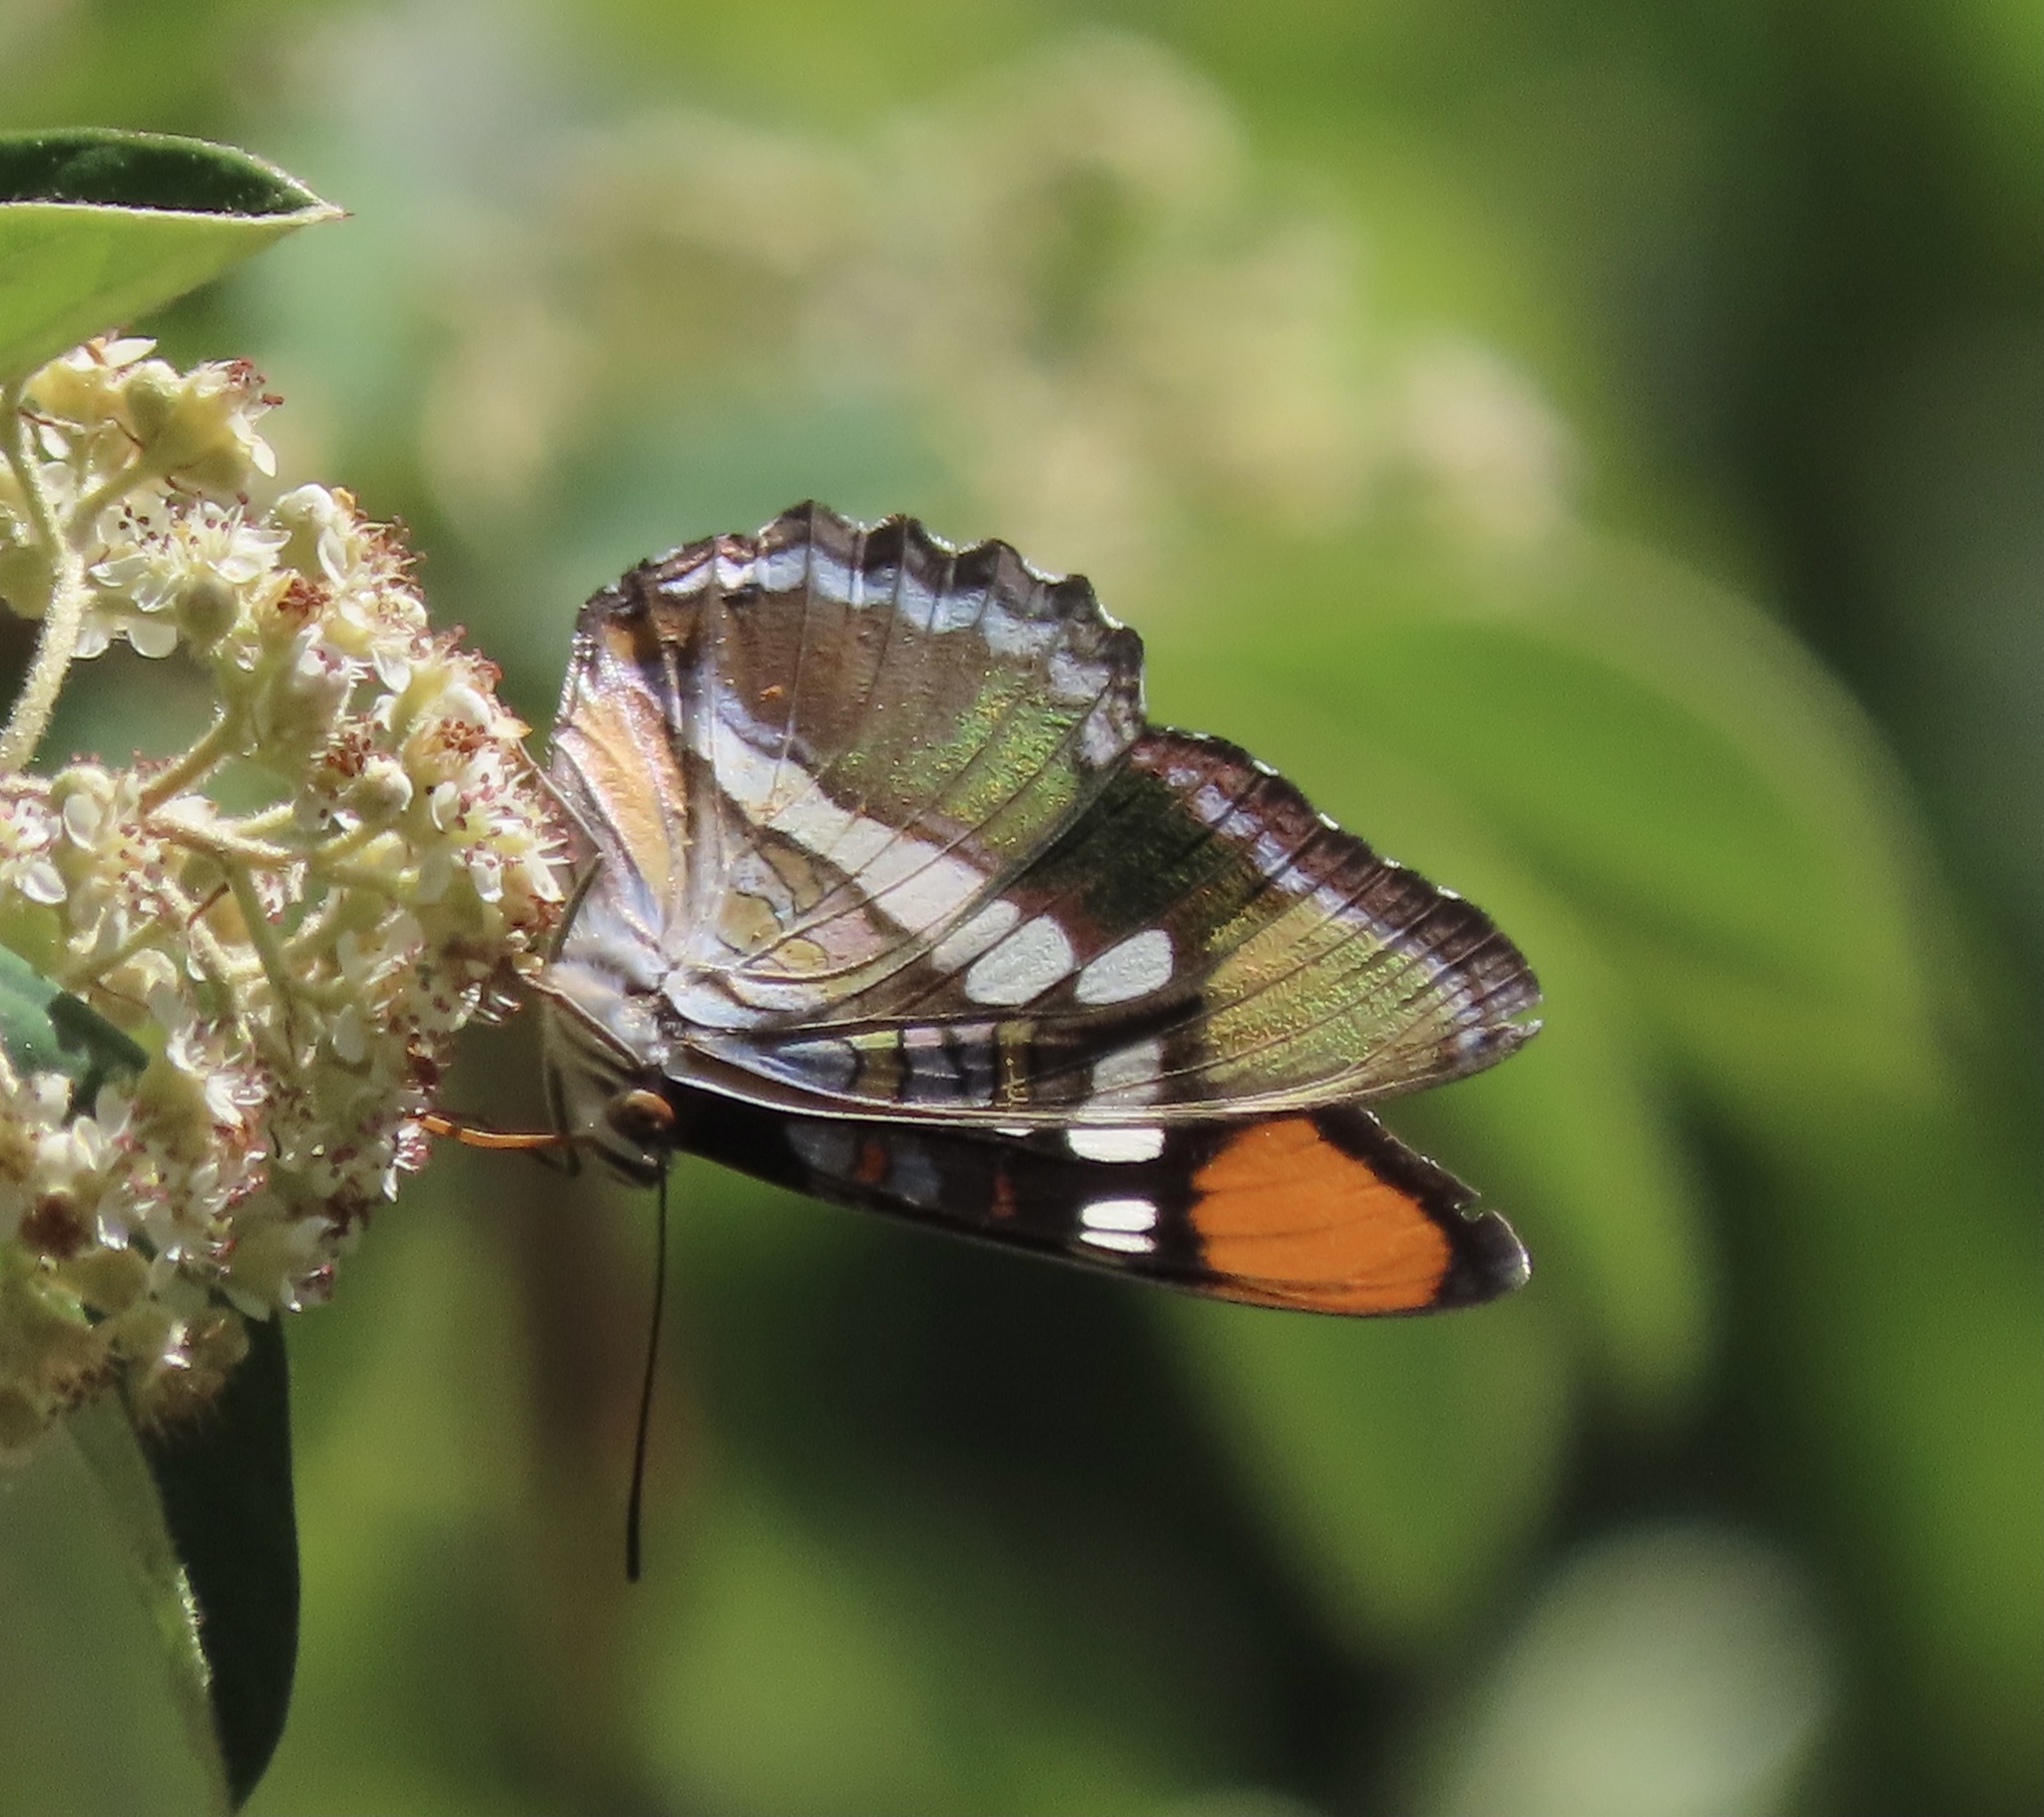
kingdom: Animalia
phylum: Arthropoda
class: Insecta
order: Lepidoptera
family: Nymphalidae
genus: Limenitis
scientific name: Limenitis bredowii
